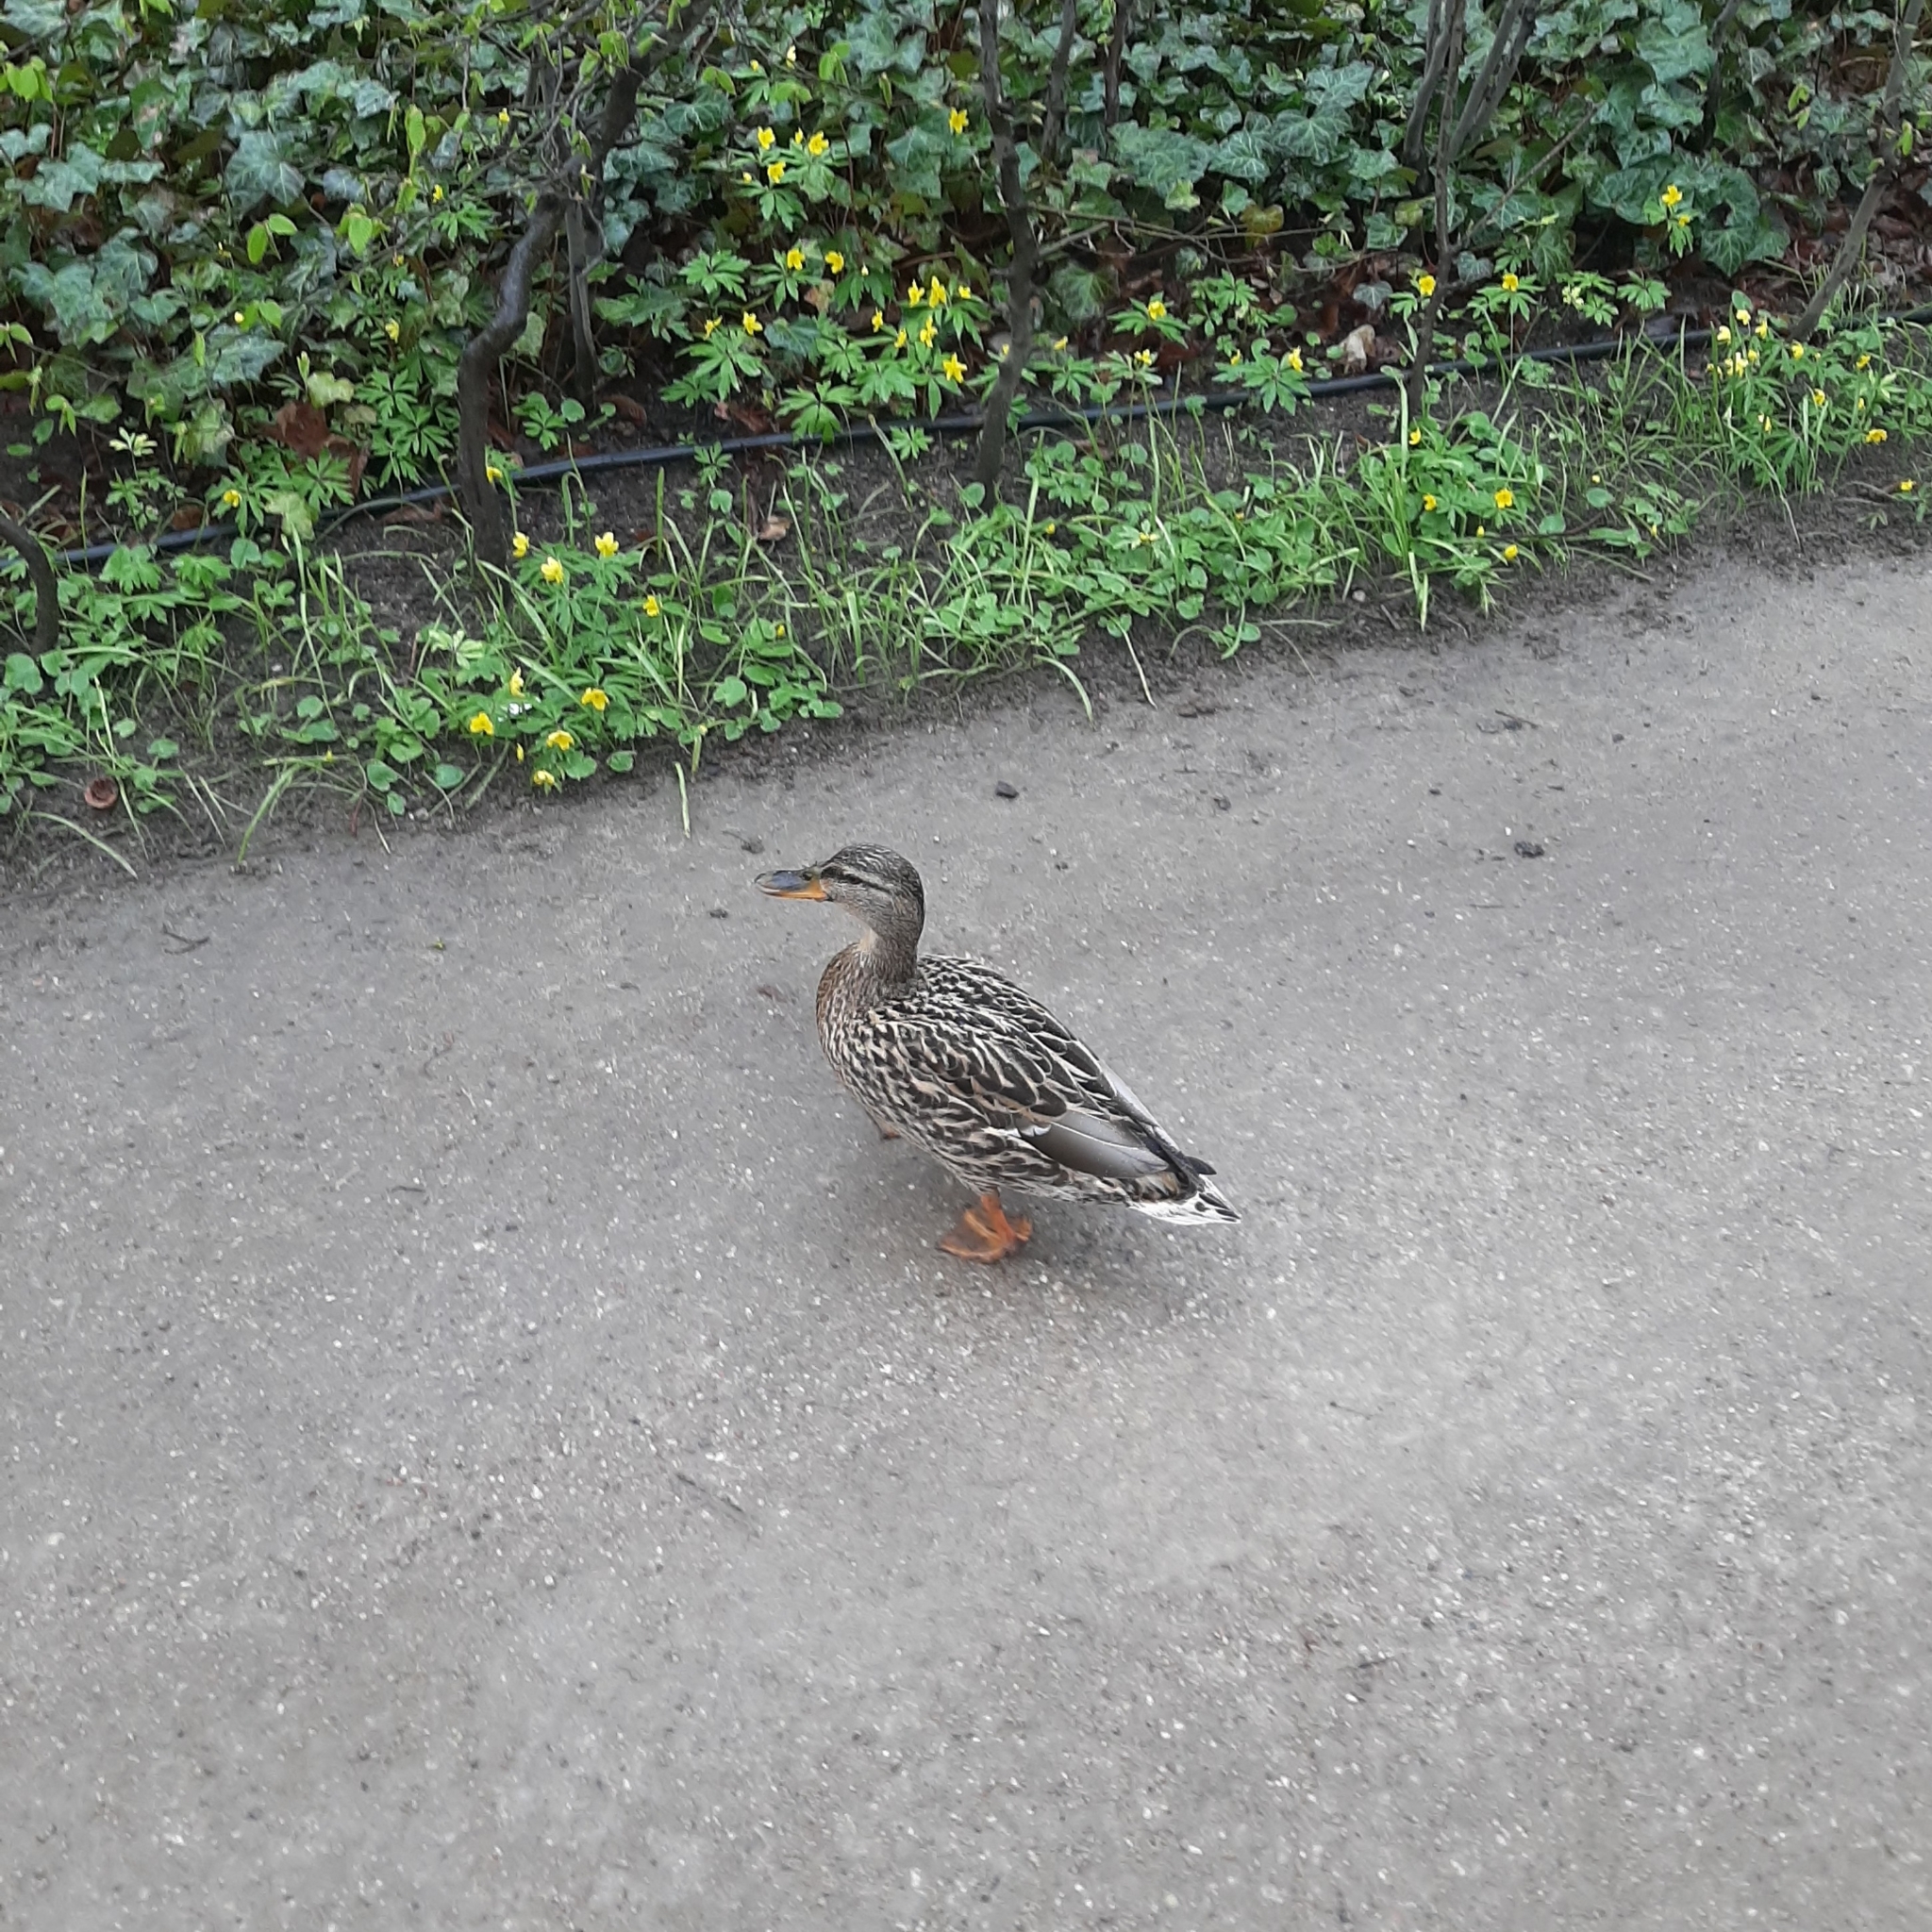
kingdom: Animalia
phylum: Chordata
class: Aves
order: Anseriformes
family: Anatidae
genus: Anas
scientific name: Anas platyrhynchos
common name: Mallard
